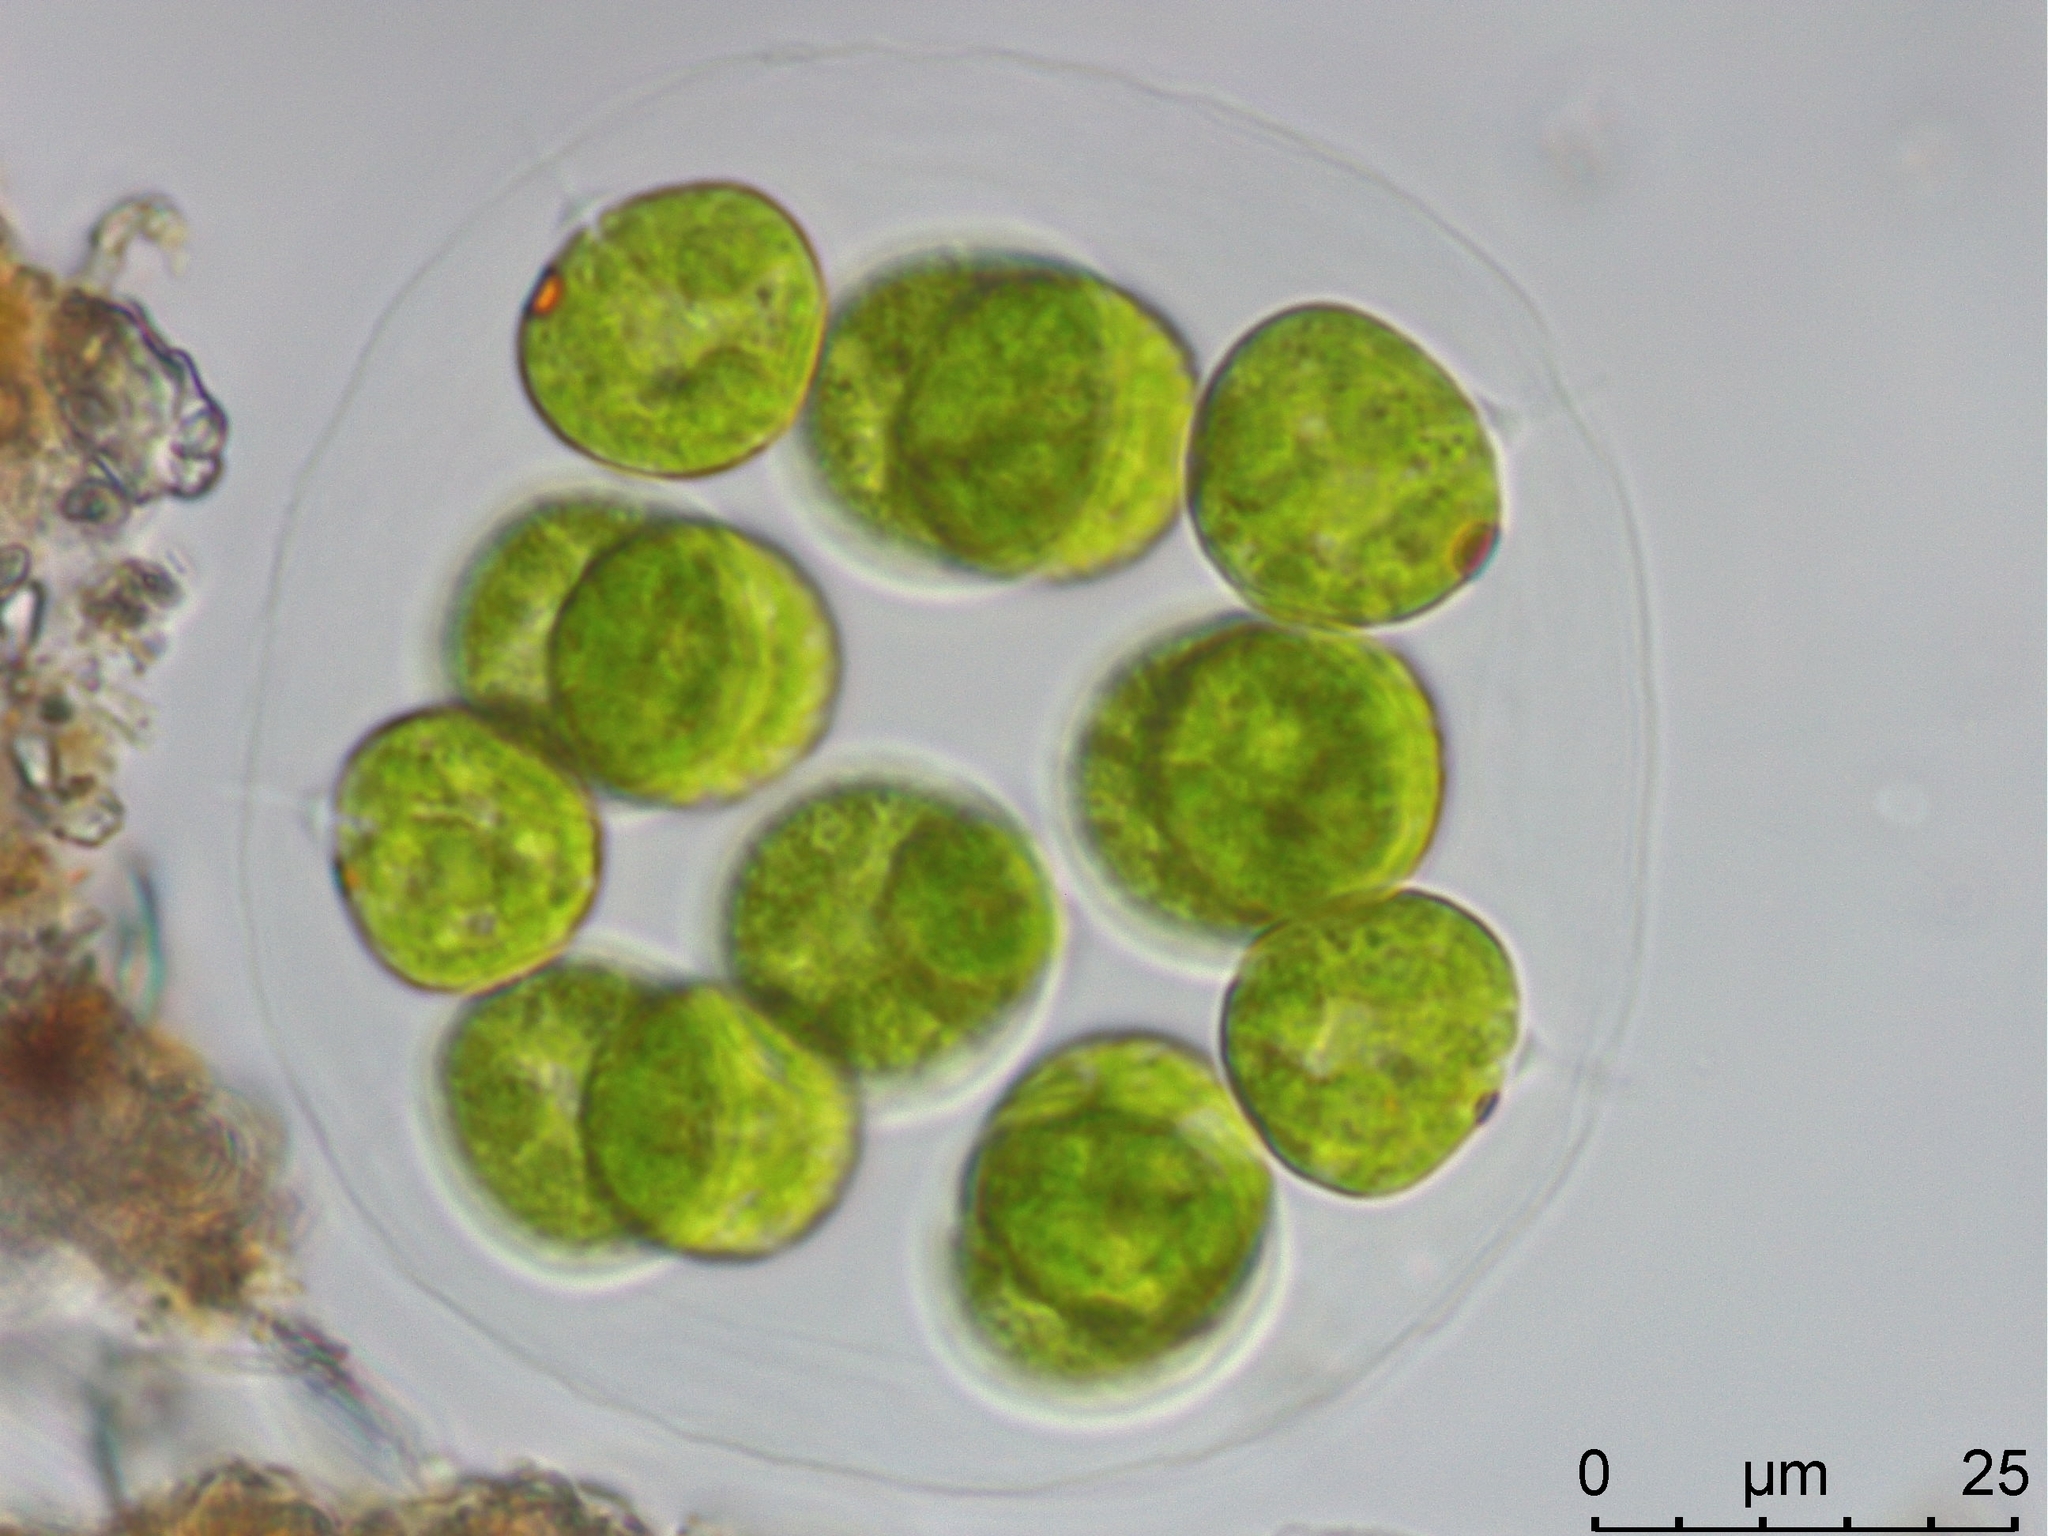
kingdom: Plantae
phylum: Chlorophyta
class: Chlorophyceae
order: Volvocales
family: Volvocaceae
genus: Eudorina
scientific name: Eudorina elegans
